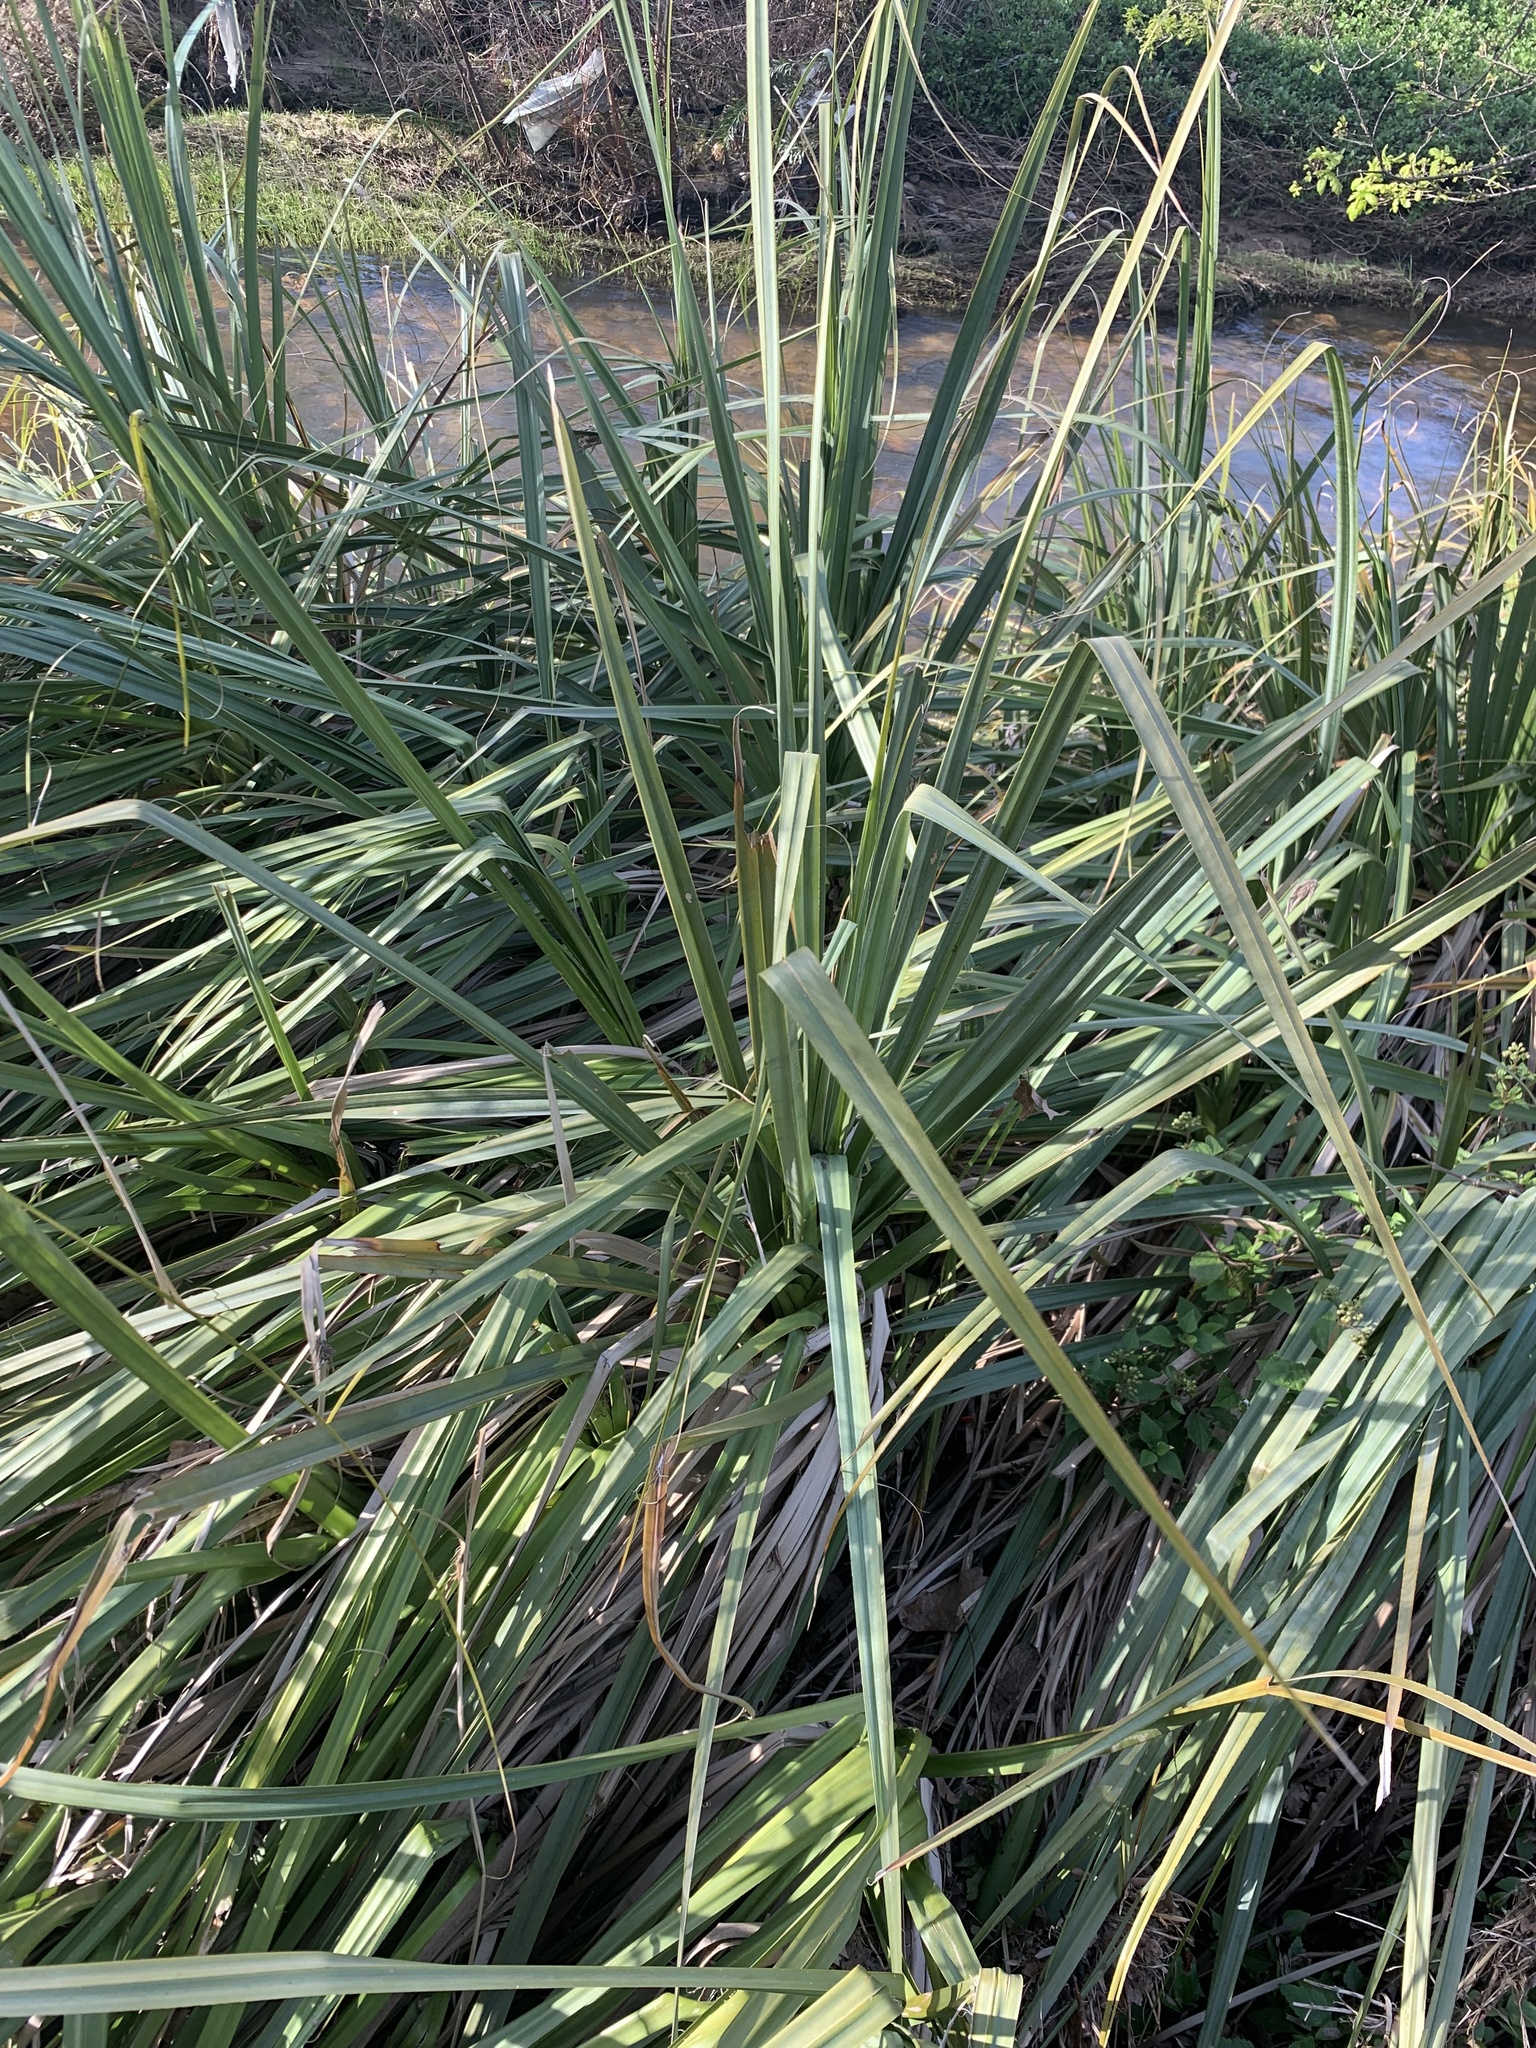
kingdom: Plantae
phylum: Tracheophyta
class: Liliopsida
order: Poales
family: Thurniaceae
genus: Prionium
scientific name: Prionium serratum
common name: Palmiet
